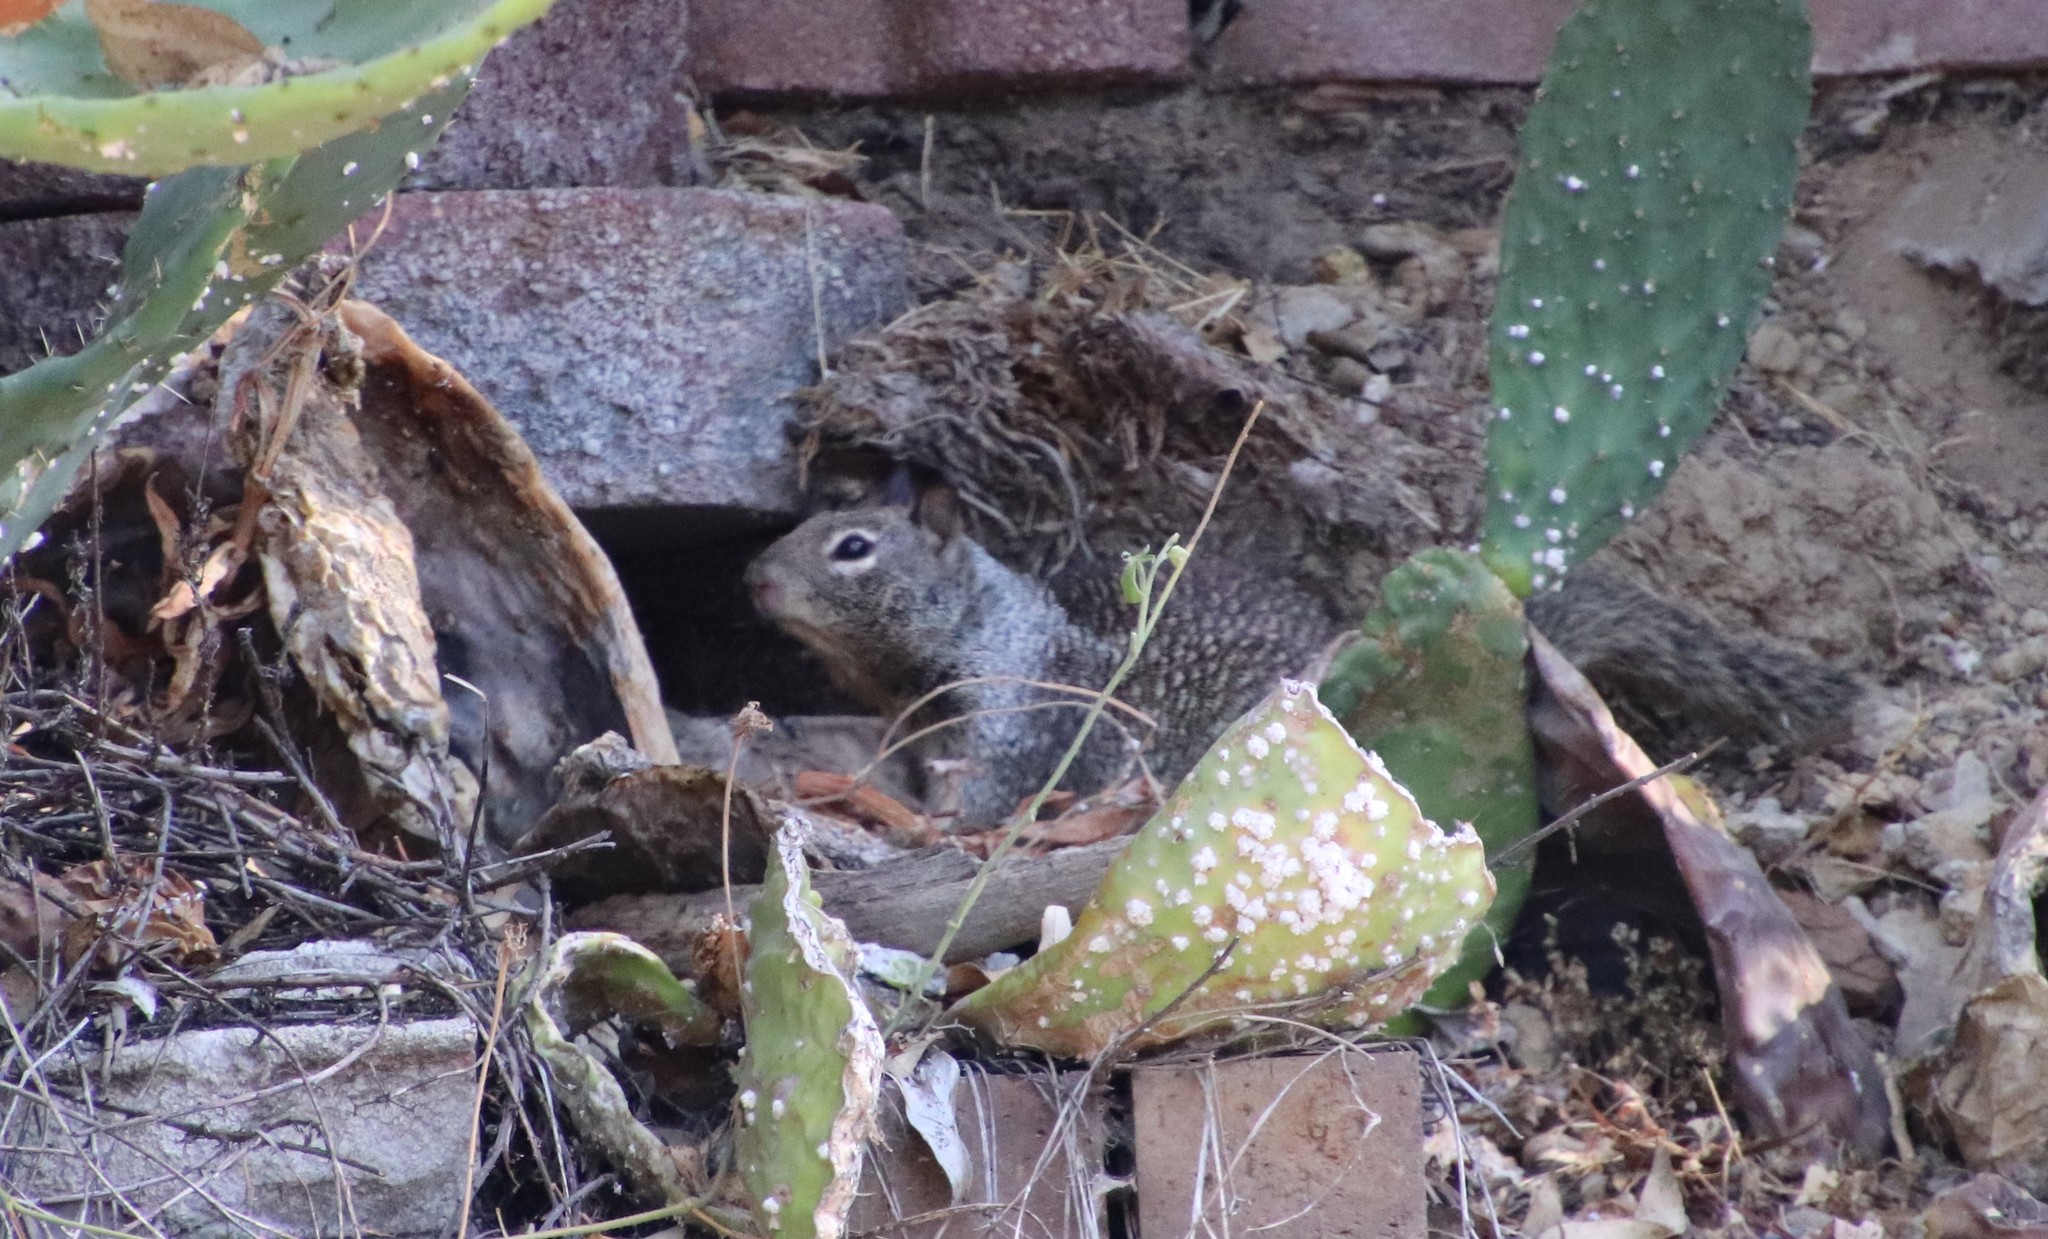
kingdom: Animalia
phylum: Chordata
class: Mammalia
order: Rodentia
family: Sciuridae
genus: Otospermophilus
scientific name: Otospermophilus beecheyi
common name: California ground squirrel
